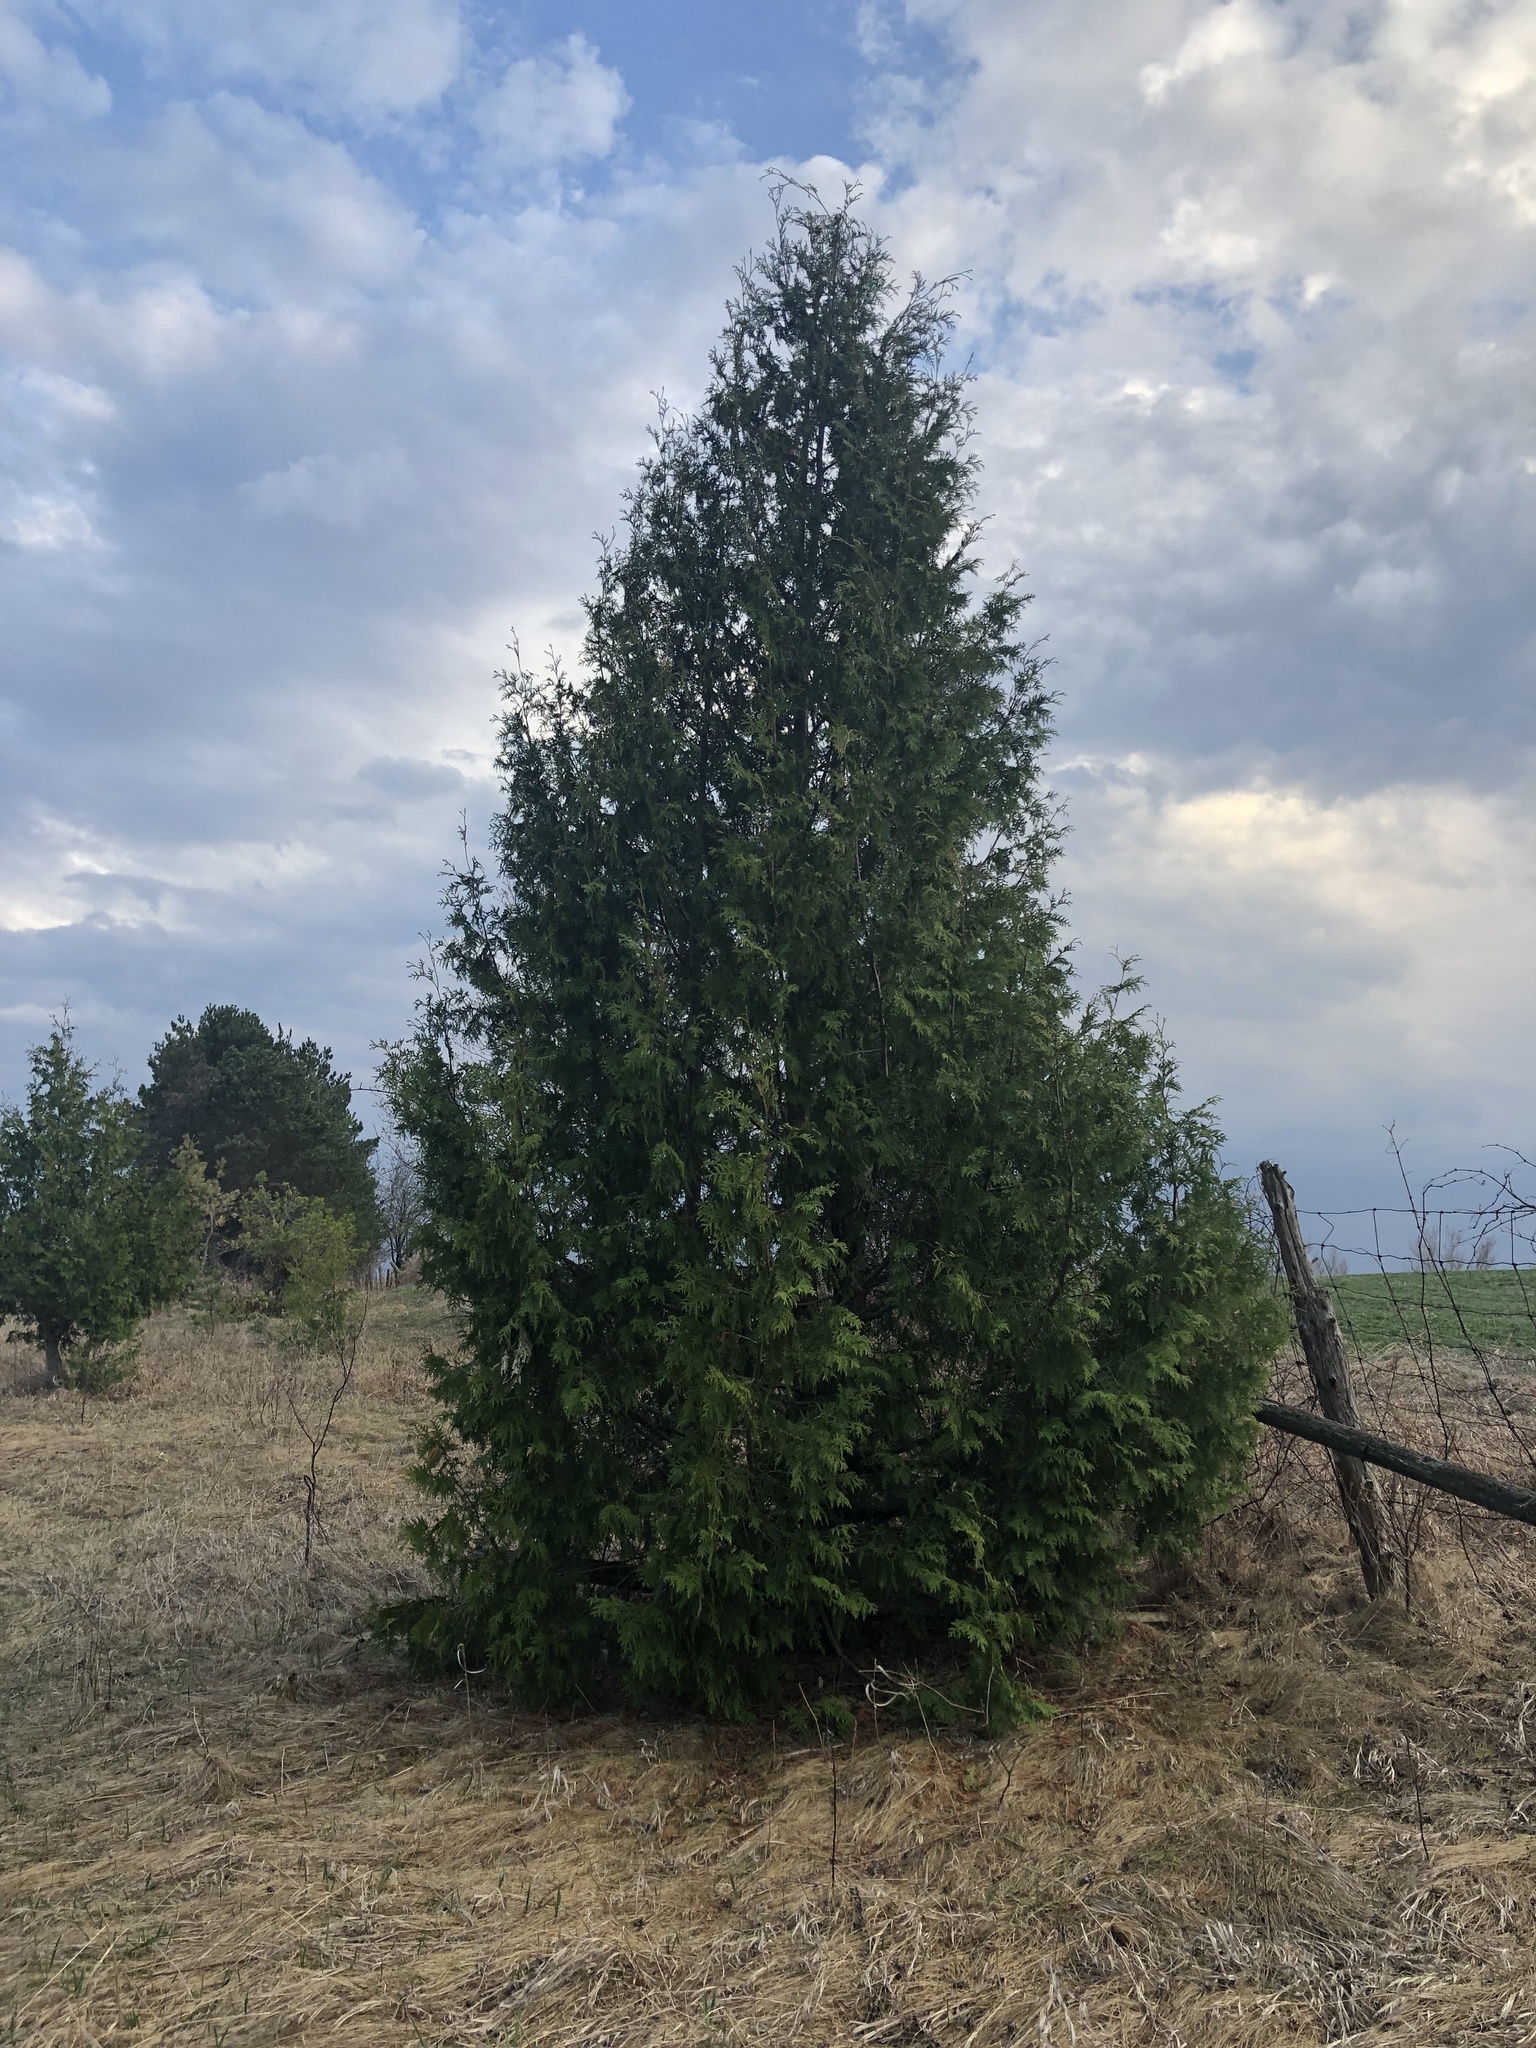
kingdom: Plantae
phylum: Tracheophyta
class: Pinopsida
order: Pinales
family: Cupressaceae
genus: Thuja
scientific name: Thuja occidentalis
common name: Northern white-cedar
